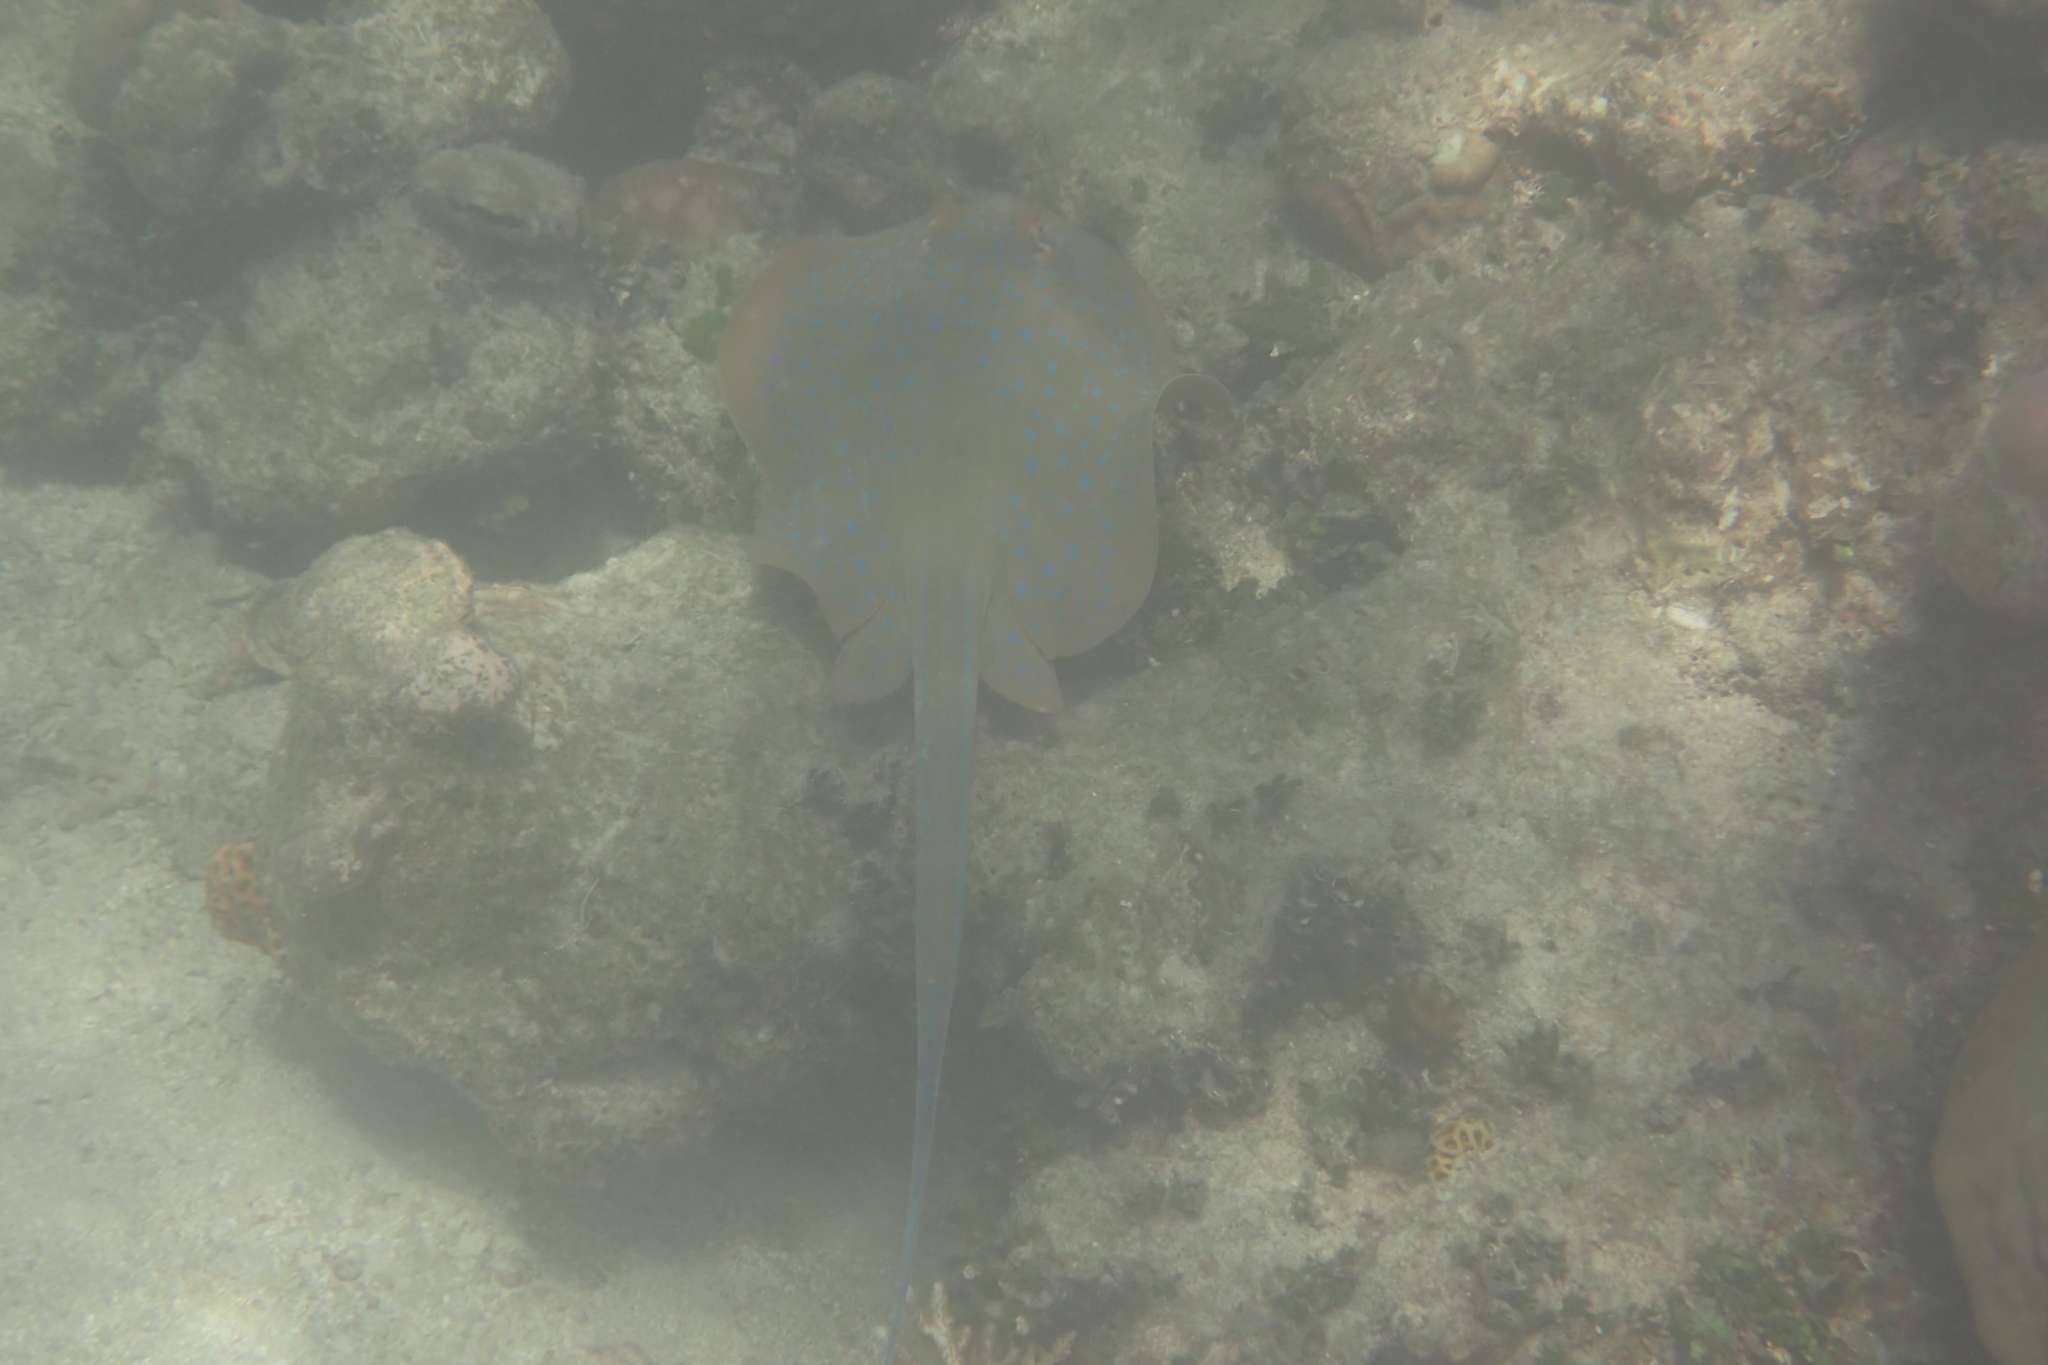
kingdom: Animalia
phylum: Chordata
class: Elasmobranchii
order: Myliobatiformes
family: Dasyatidae
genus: Taeniura
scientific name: Taeniura lymma
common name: Bluespotted ribbontail ray
